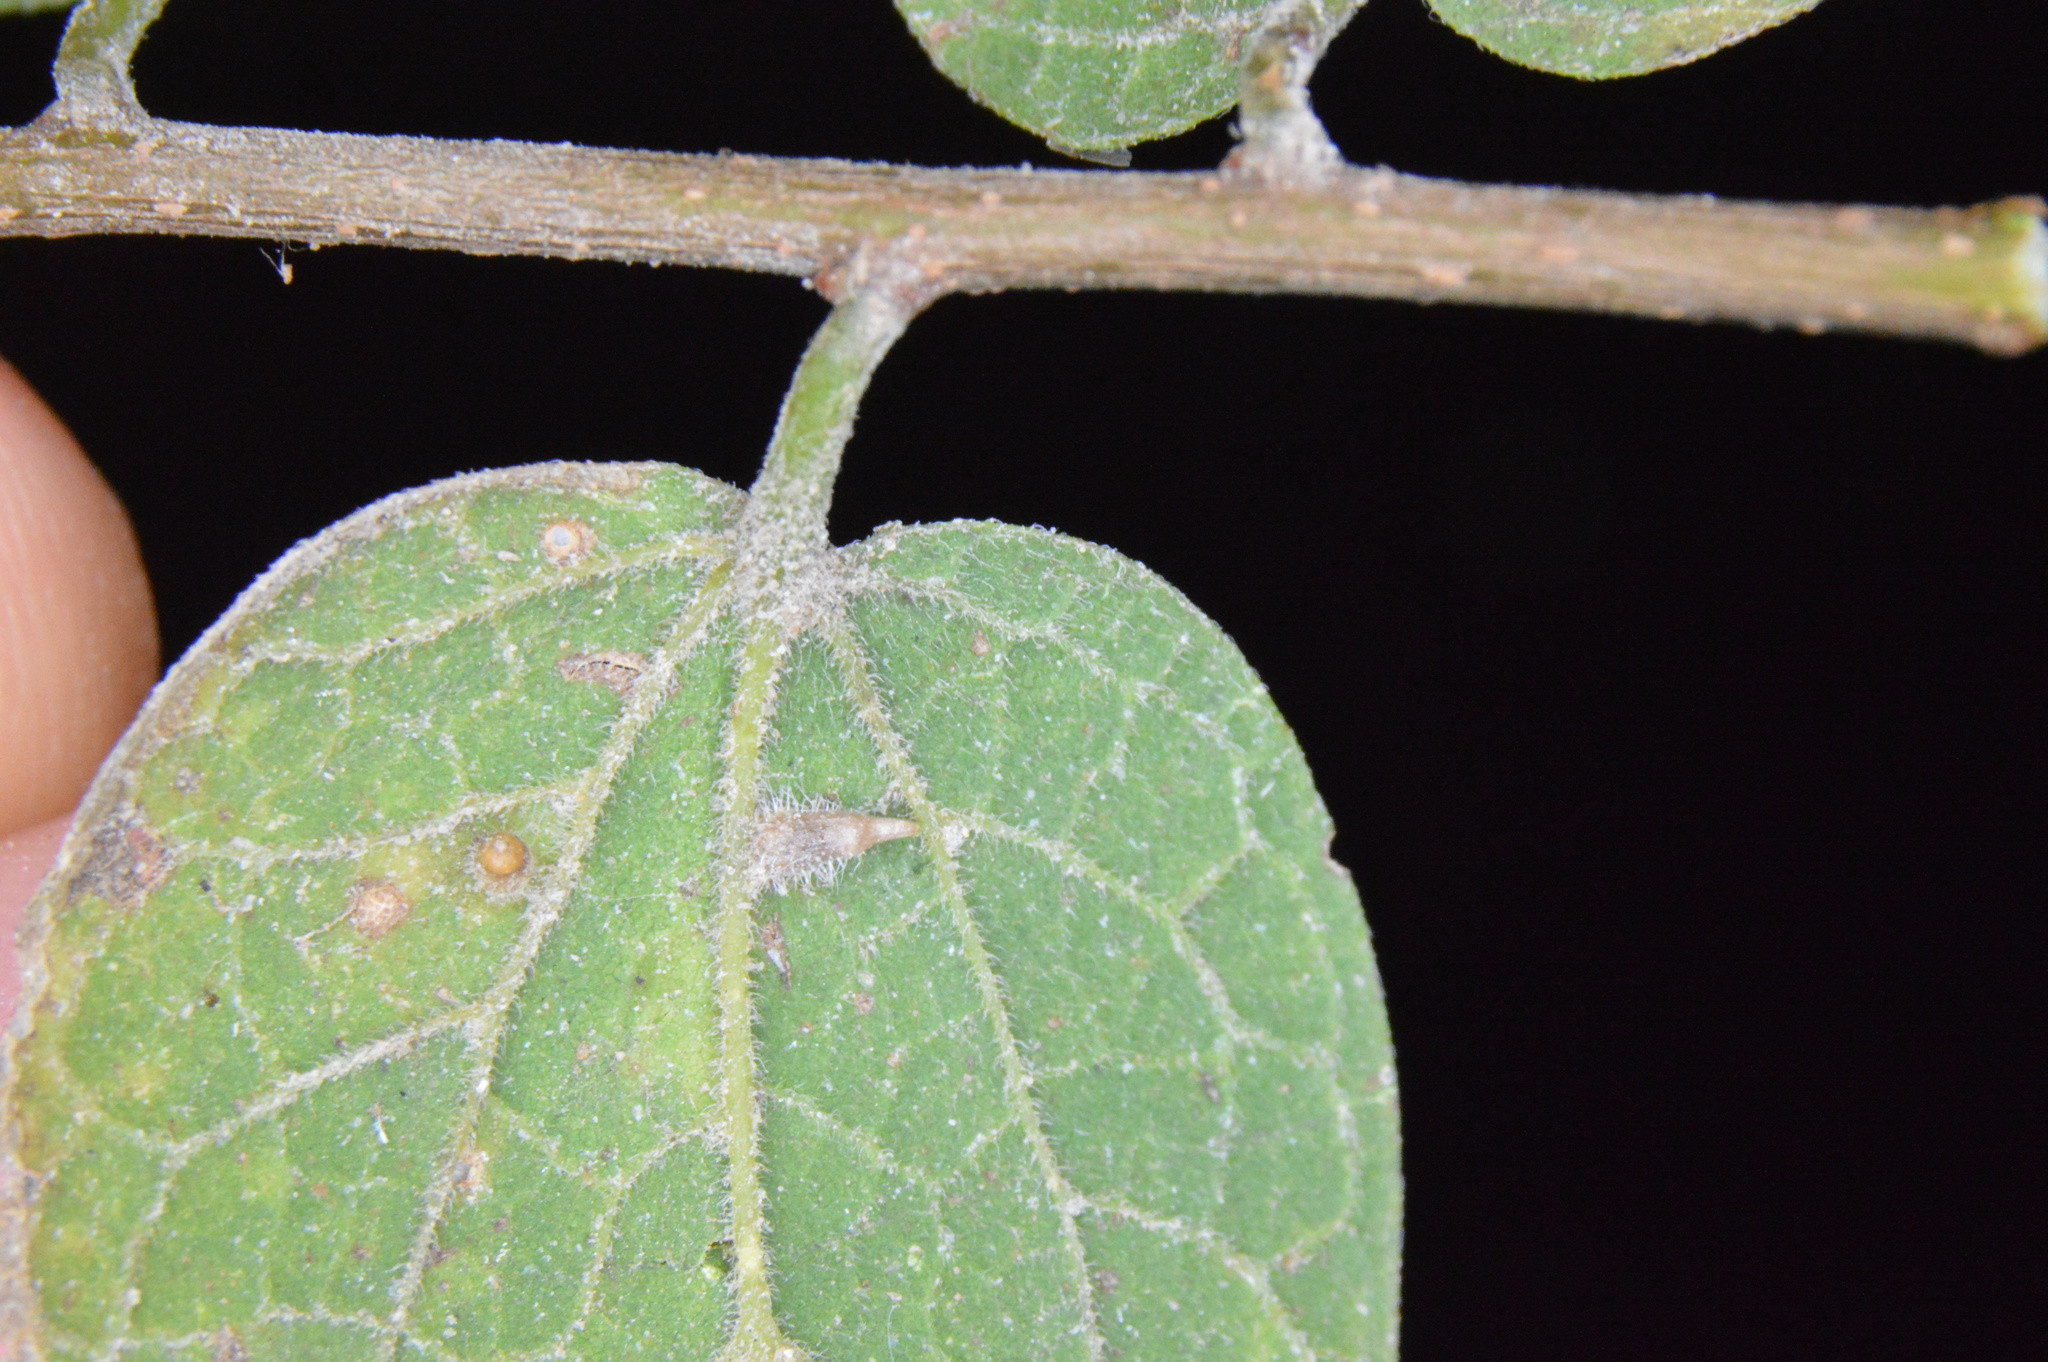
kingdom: Animalia
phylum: Arthropoda
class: Insecta
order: Diptera
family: Cecidomyiidae
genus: Celticecis
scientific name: Celticecis cupiformis
